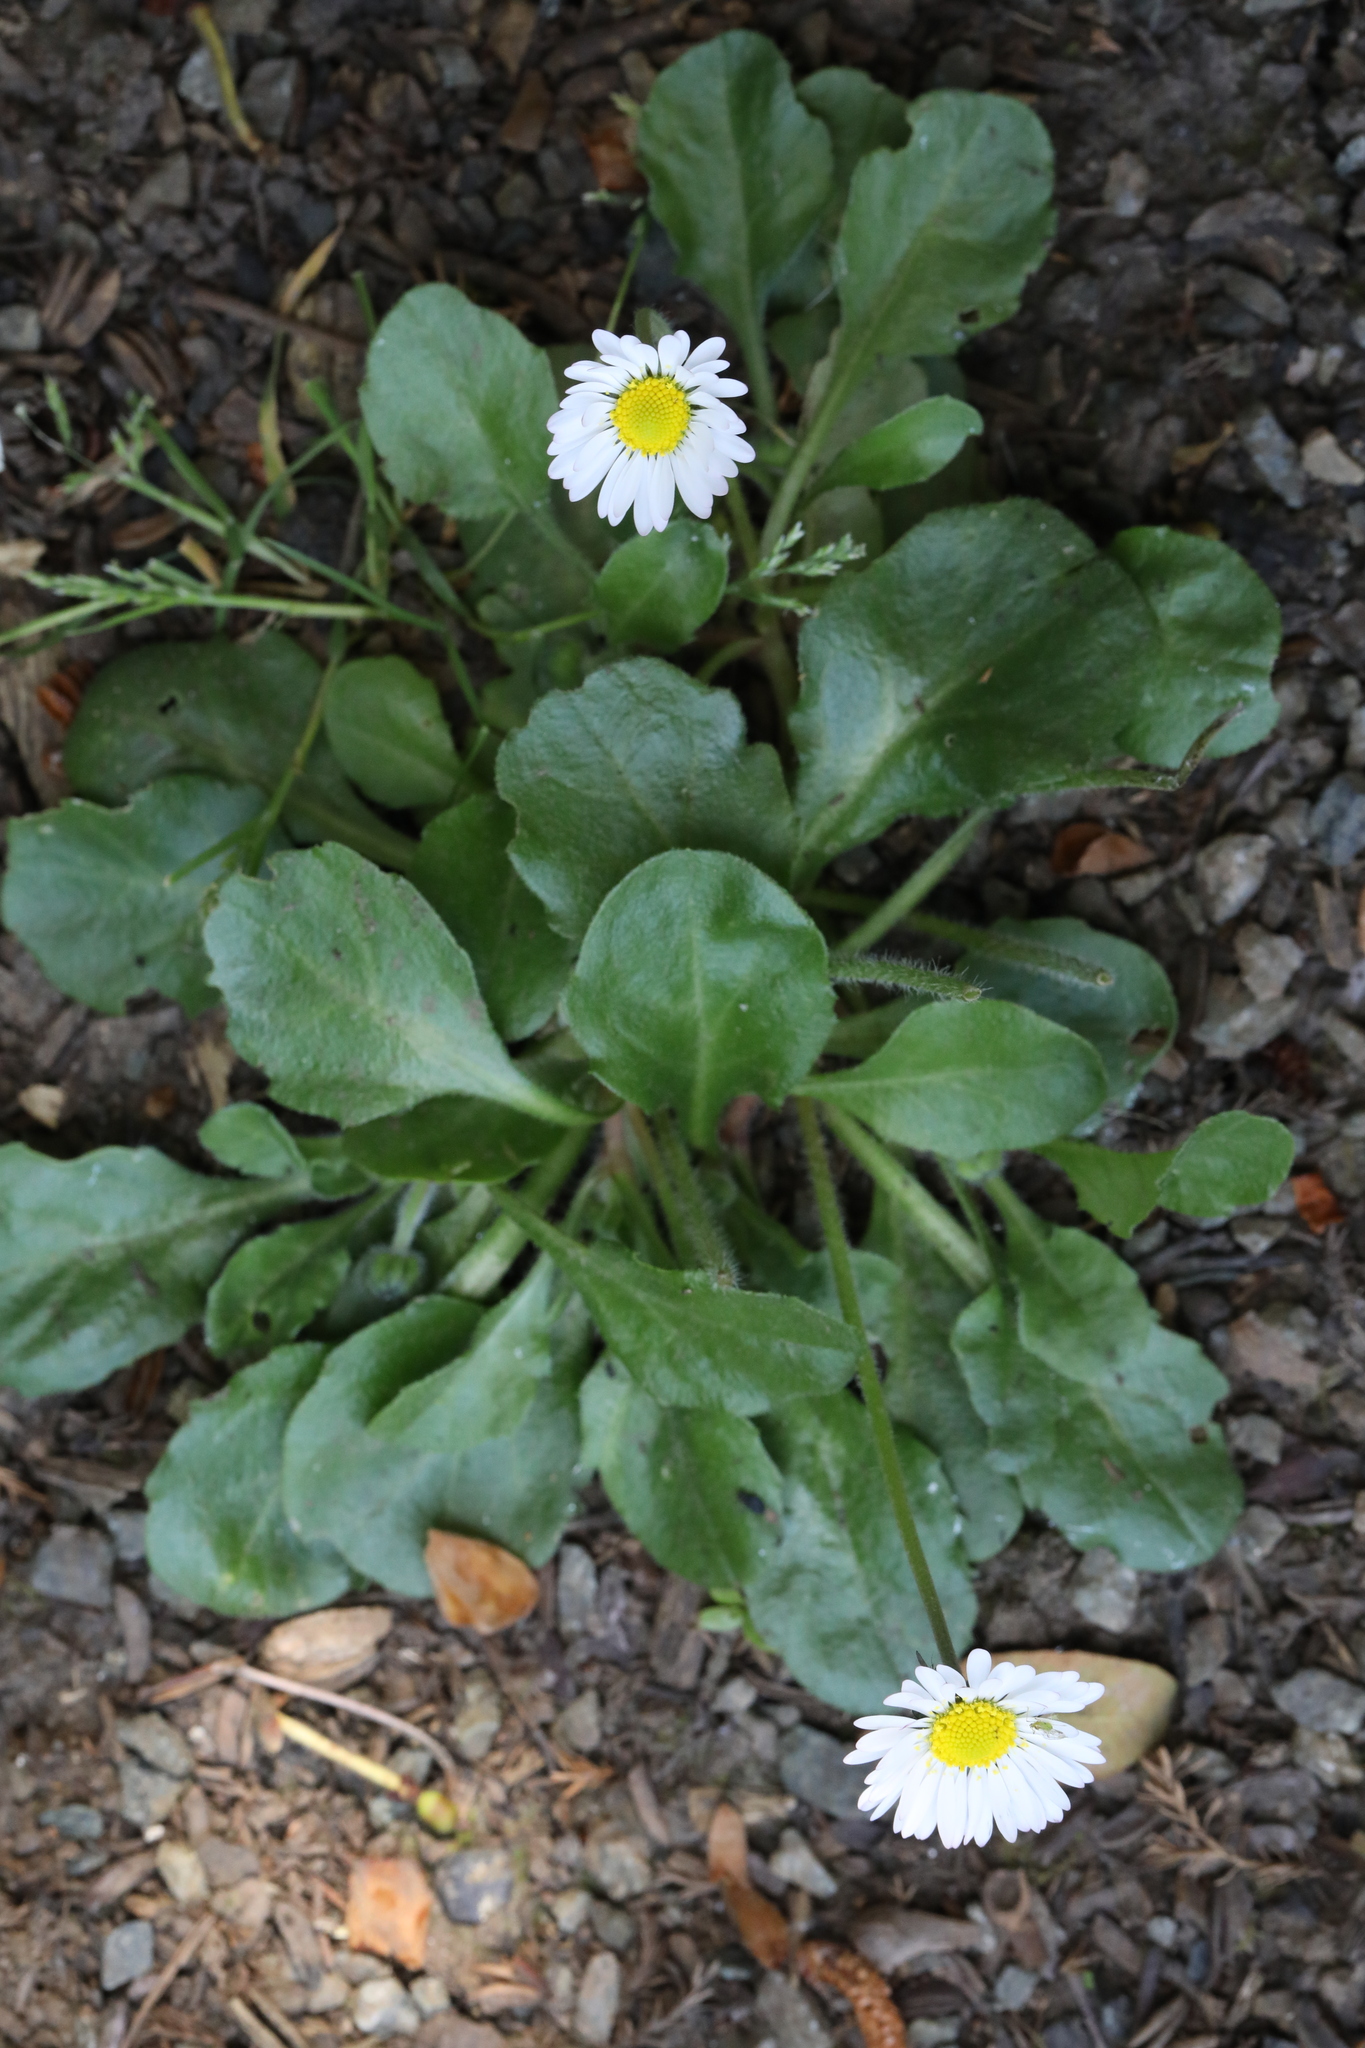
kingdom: Plantae
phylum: Tracheophyta
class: Magnoliopsida
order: Asterales
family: Asteraceae
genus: Bellis
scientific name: Bellis perennis
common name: Lawndaisy
